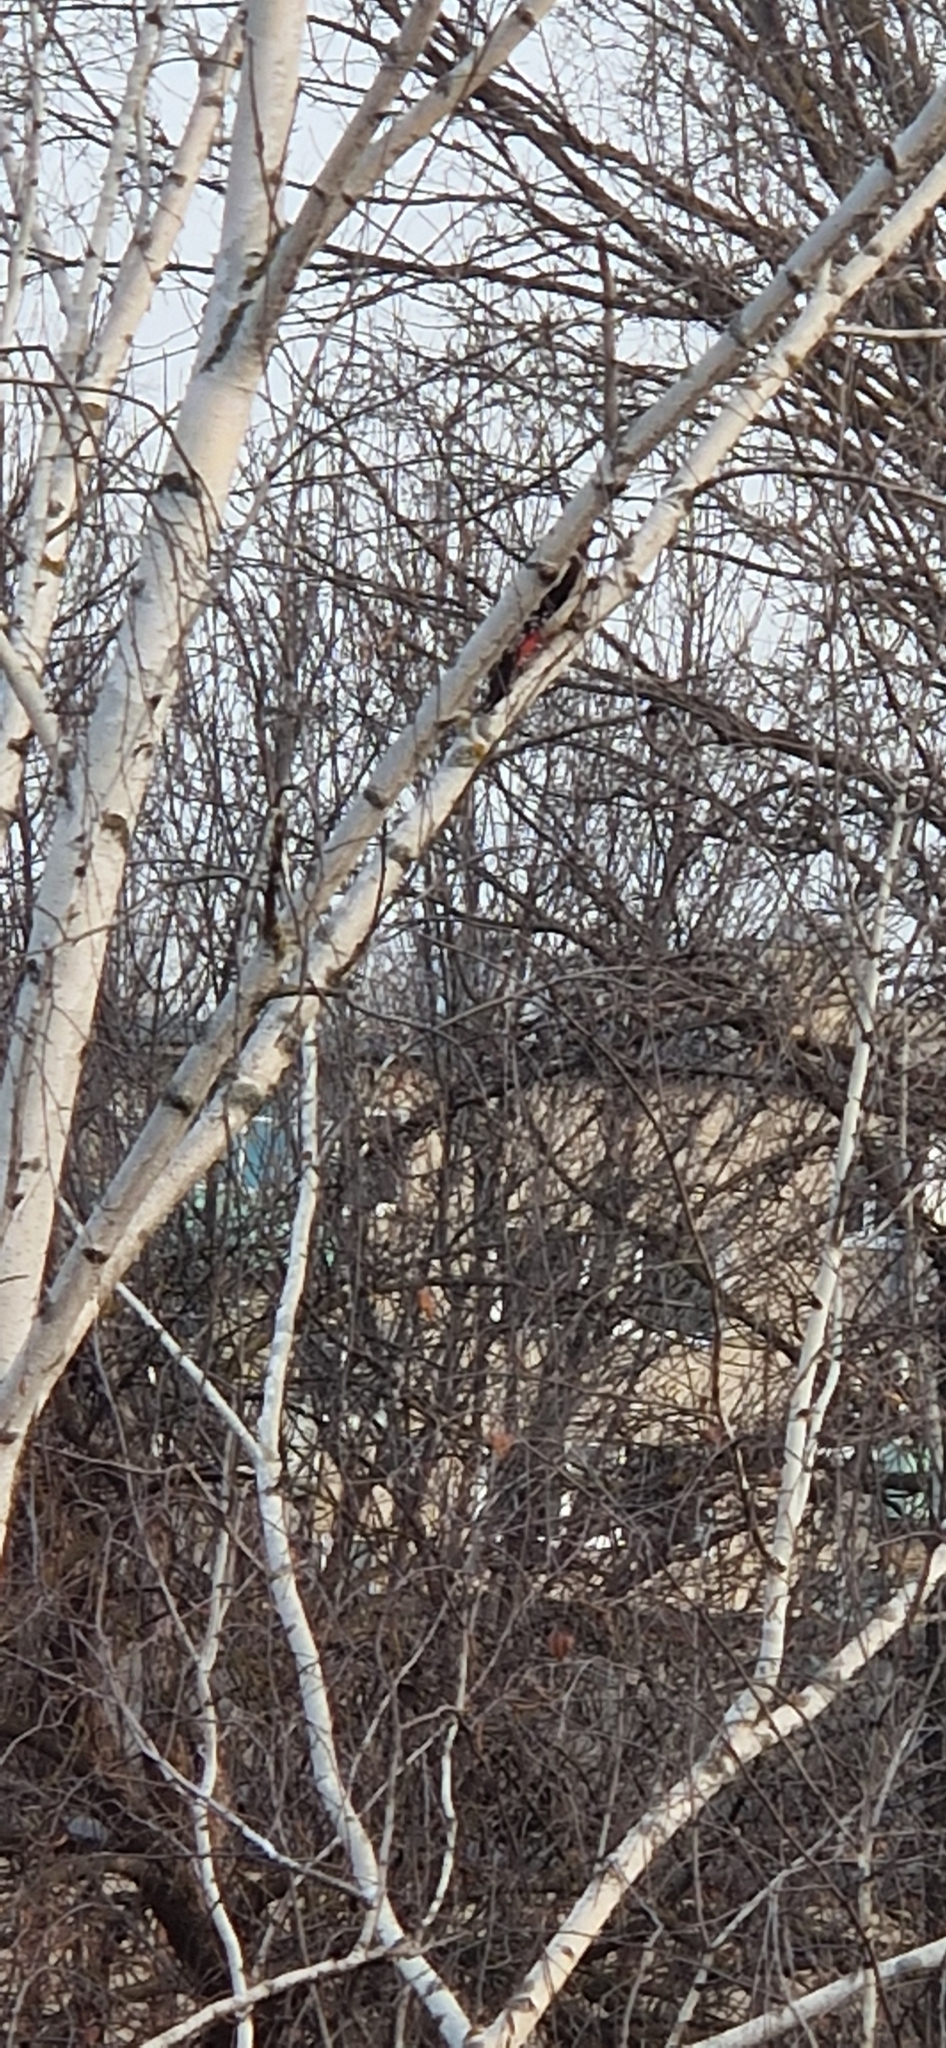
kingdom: Animalia
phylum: Chordata
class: Aves
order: Piciformes
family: Picidae
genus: Dendrocopos
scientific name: Dendrocopos major
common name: Great spotted woodpecker
